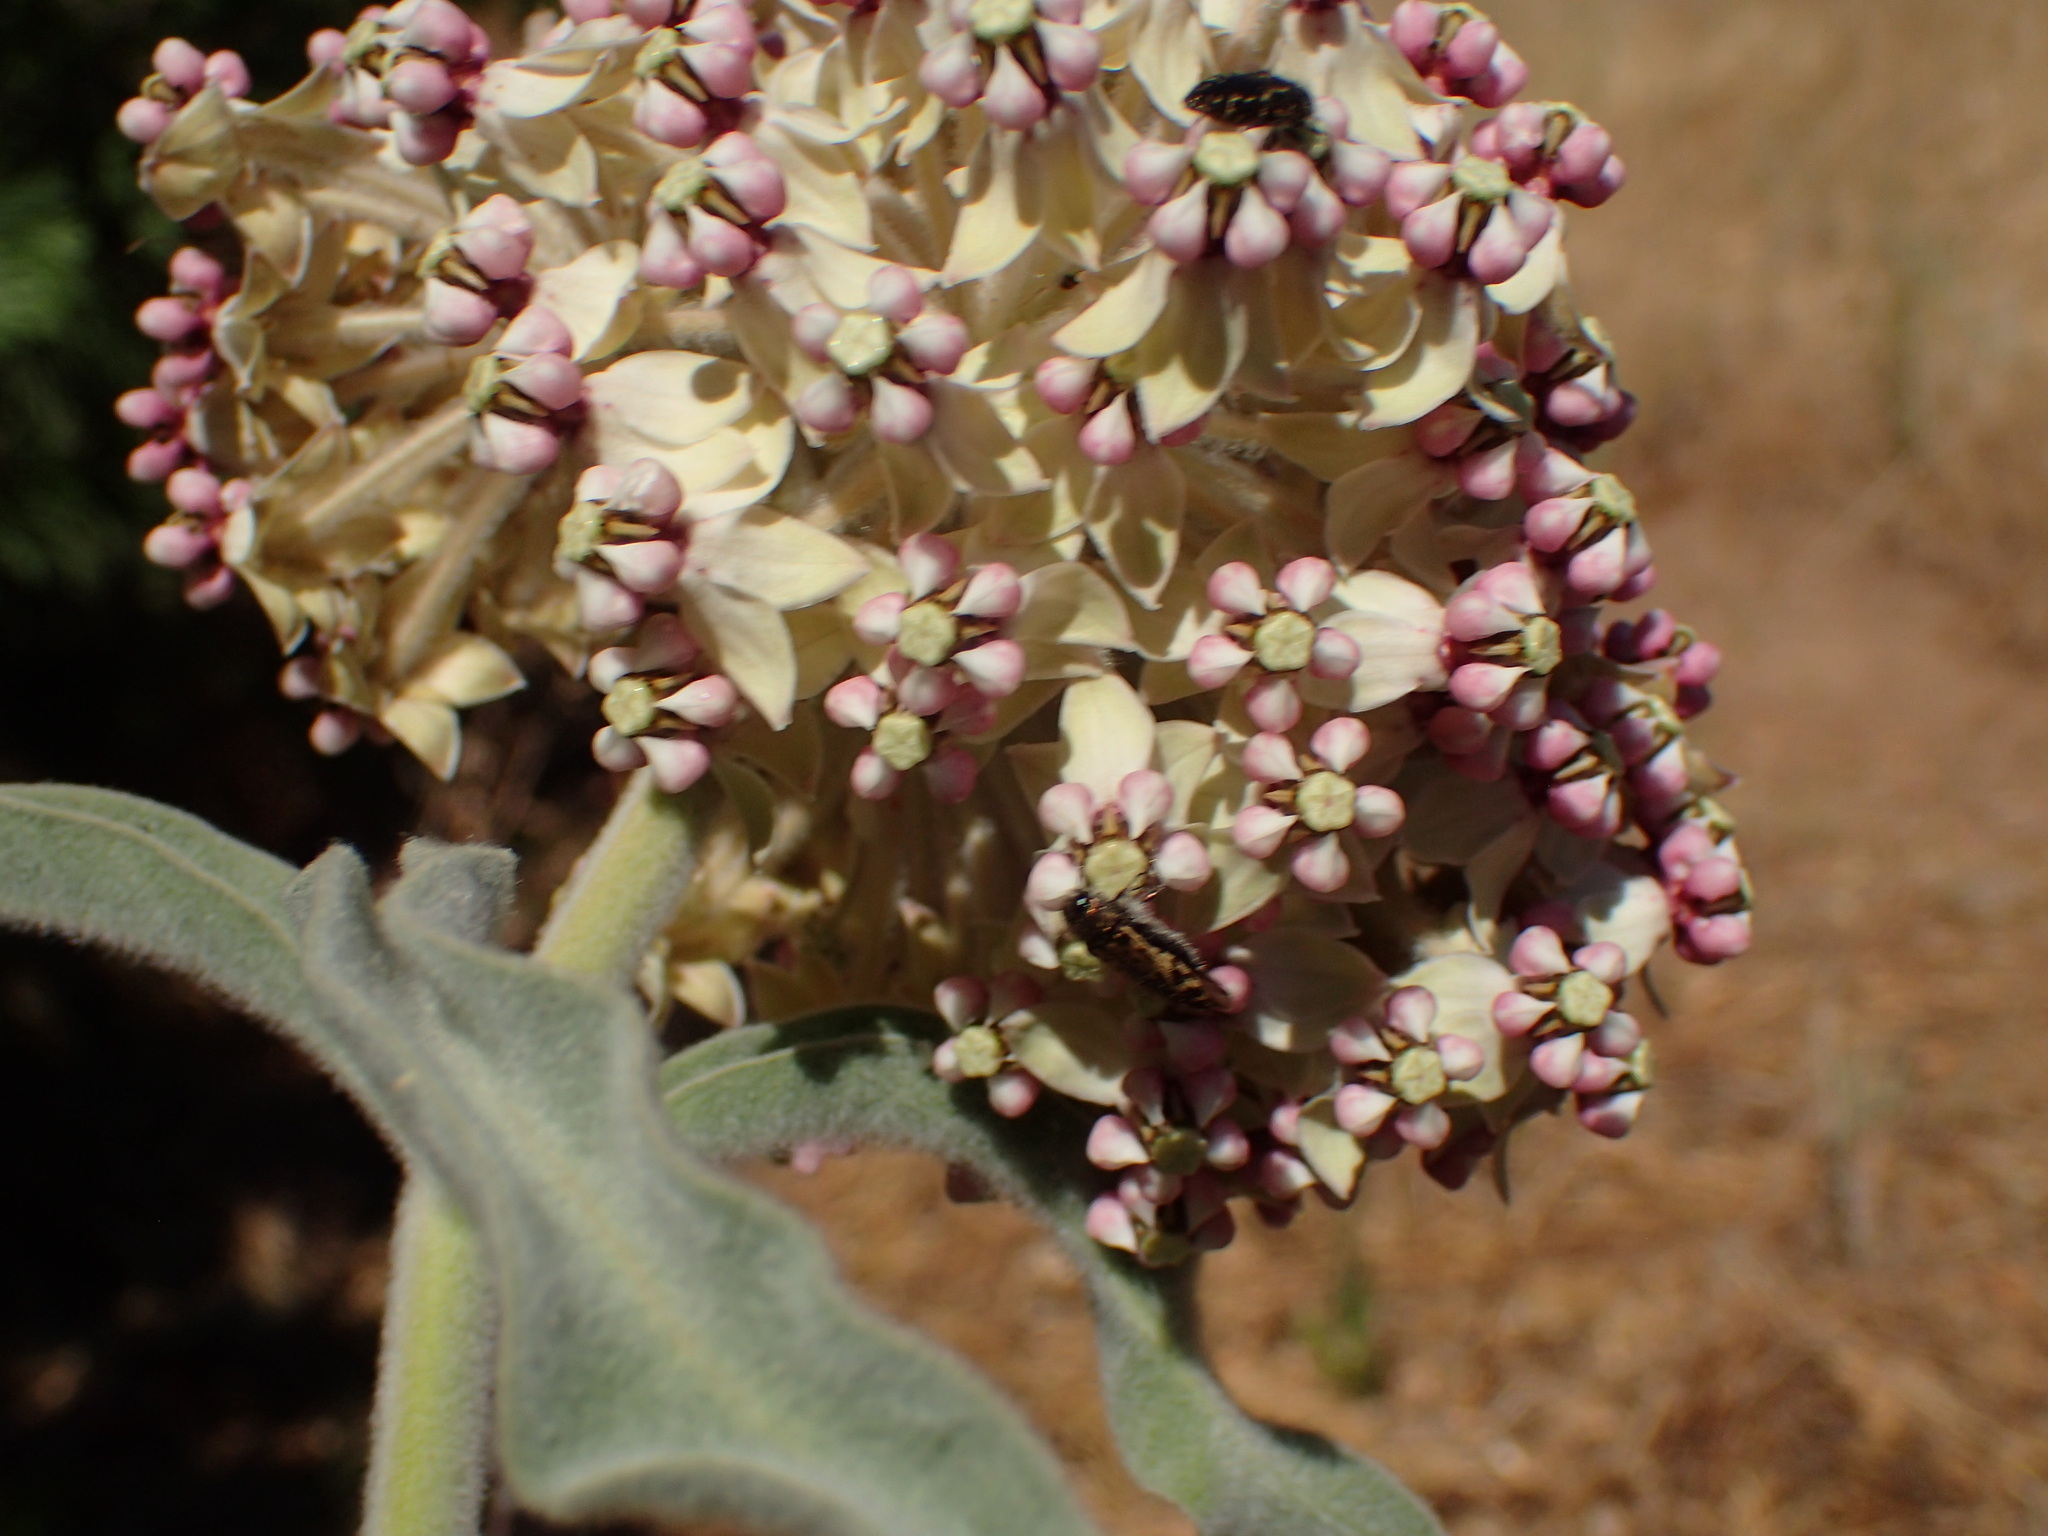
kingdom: Plantae
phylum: Tracheophyta
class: Magnoliopsida
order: Gentianales
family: Apocynaceae
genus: Asclepias
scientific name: Asclepias eriocarpa
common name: Indian milkweed
